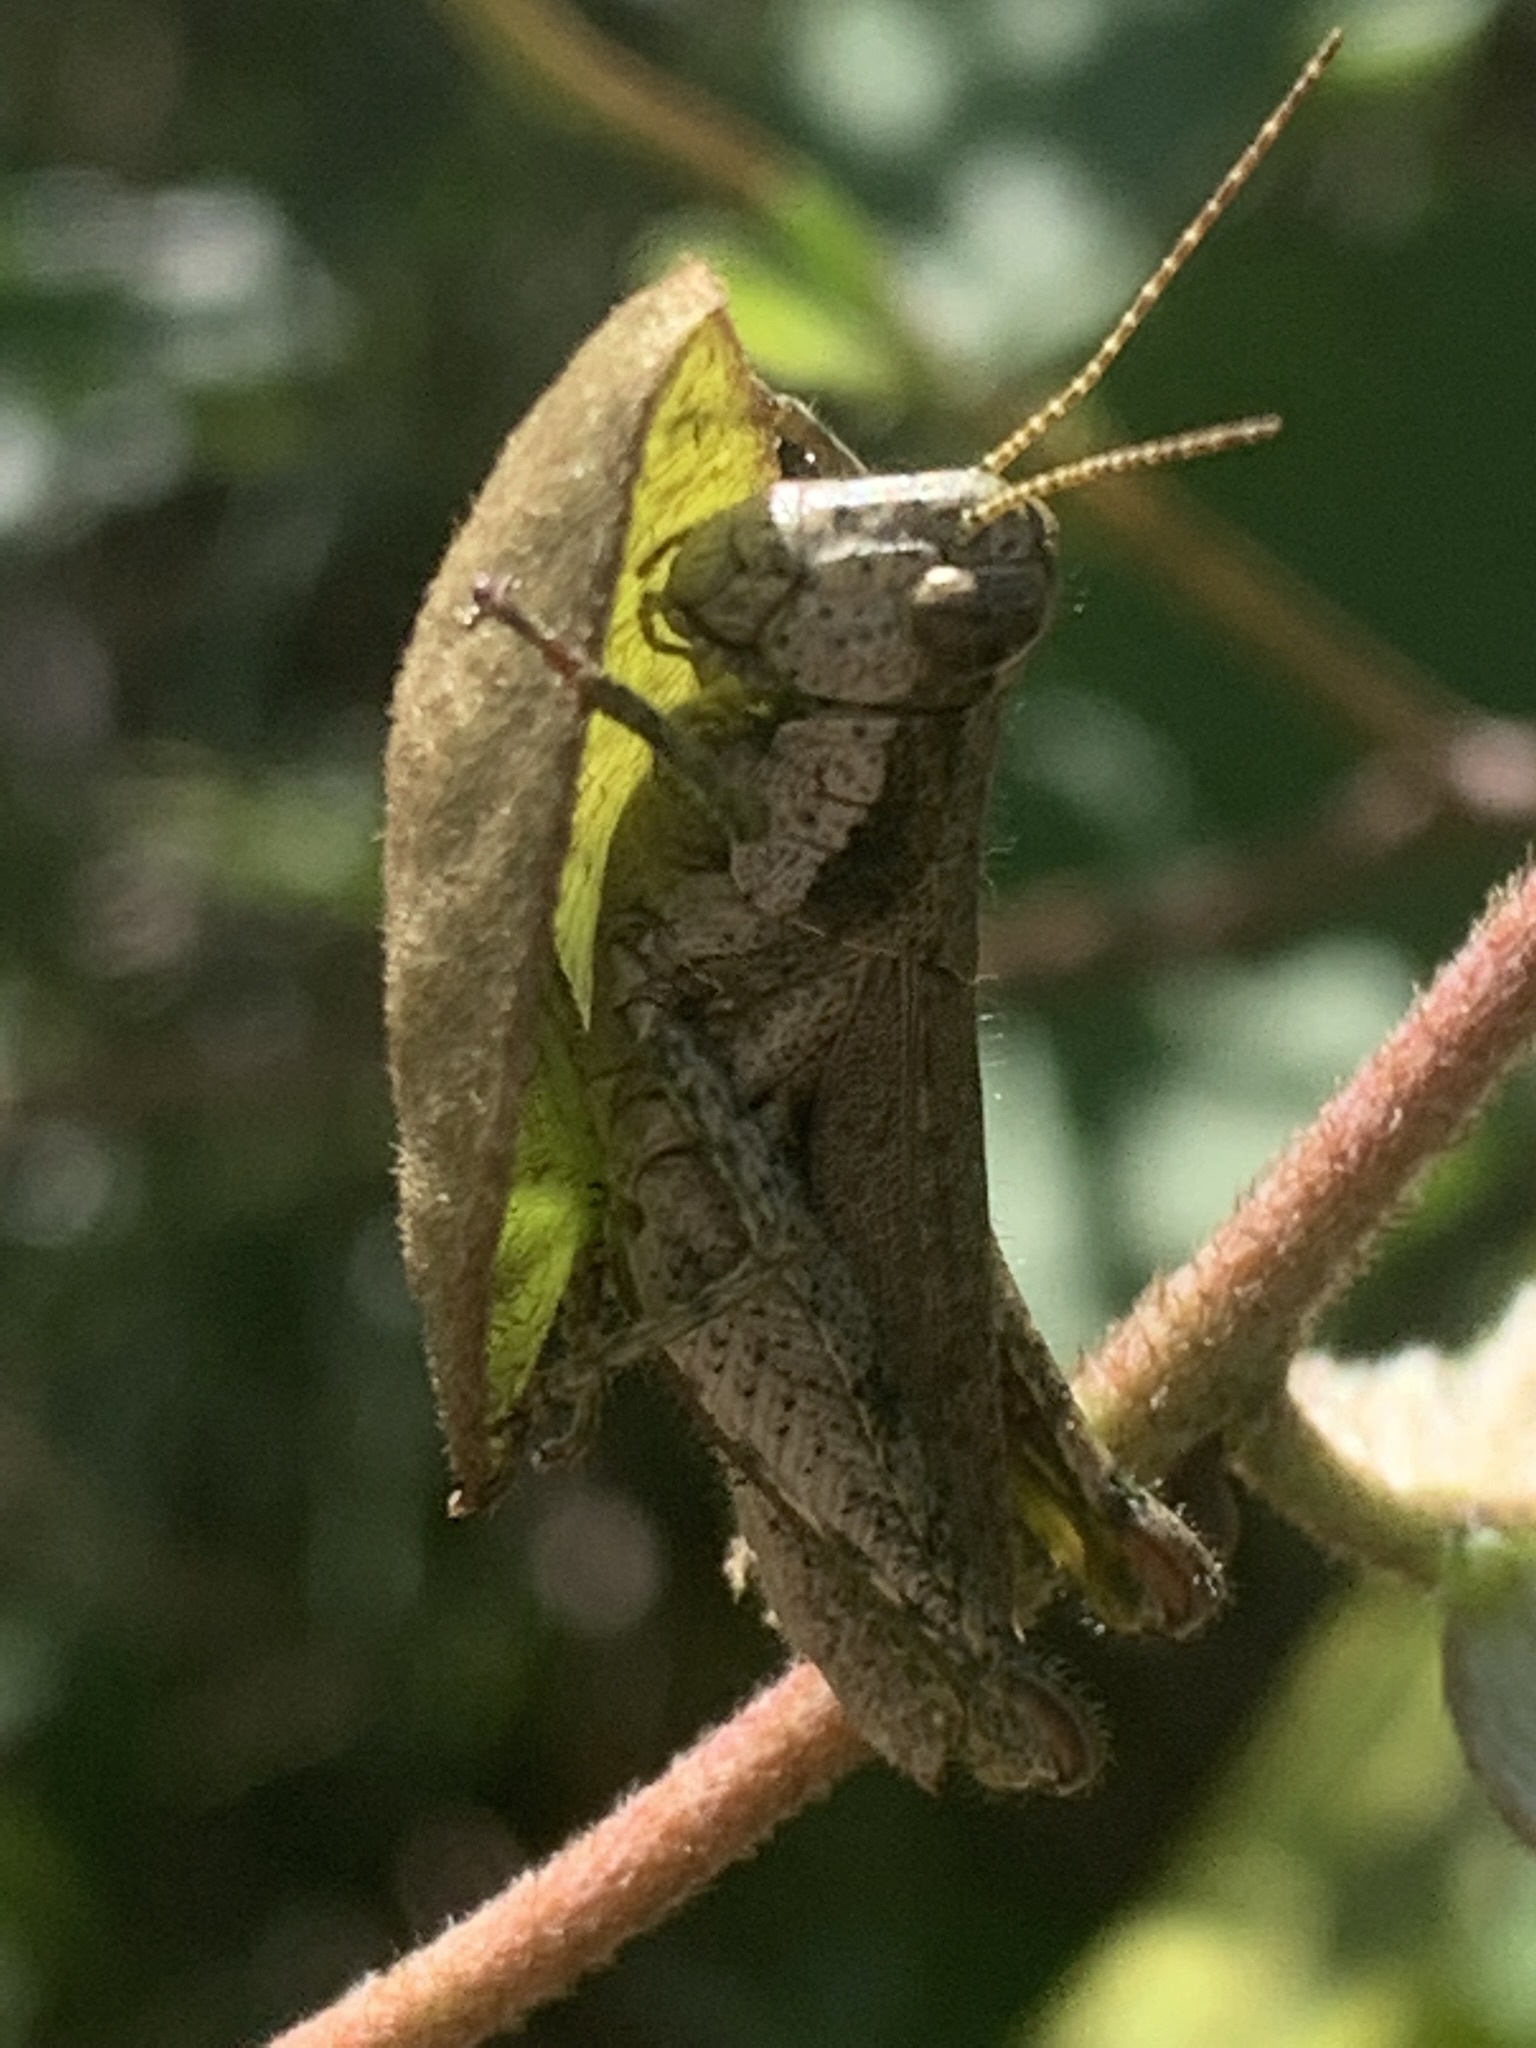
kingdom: Animalia
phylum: Arthropoda
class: Insecta
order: Orthoptera
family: Acrididae
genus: Ronderosia
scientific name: Ronderosia bergii
